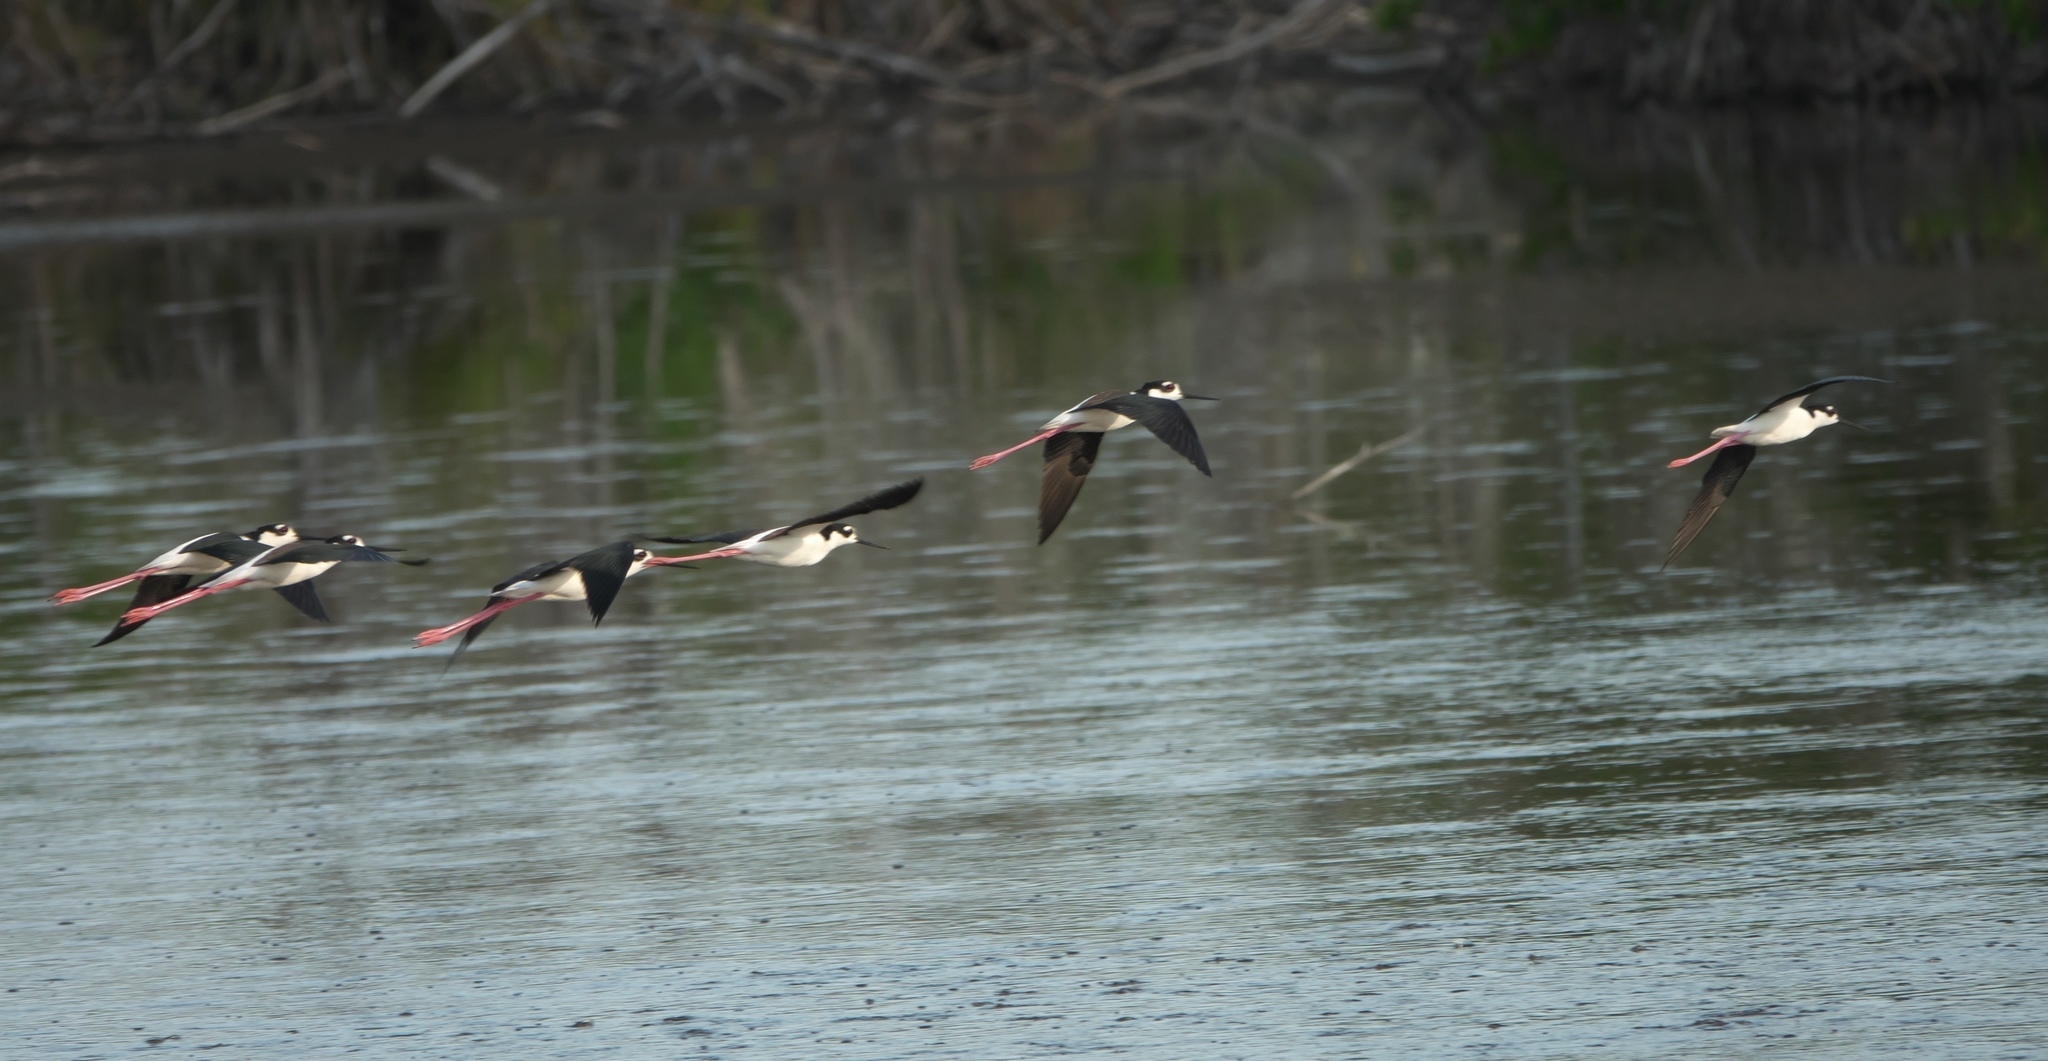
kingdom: Animalia
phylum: Chordata
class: Aves
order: Charadriiformes
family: Recurvirostridae
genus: Himantopus
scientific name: Himantopus mexicanus
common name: Black-necked stilt
